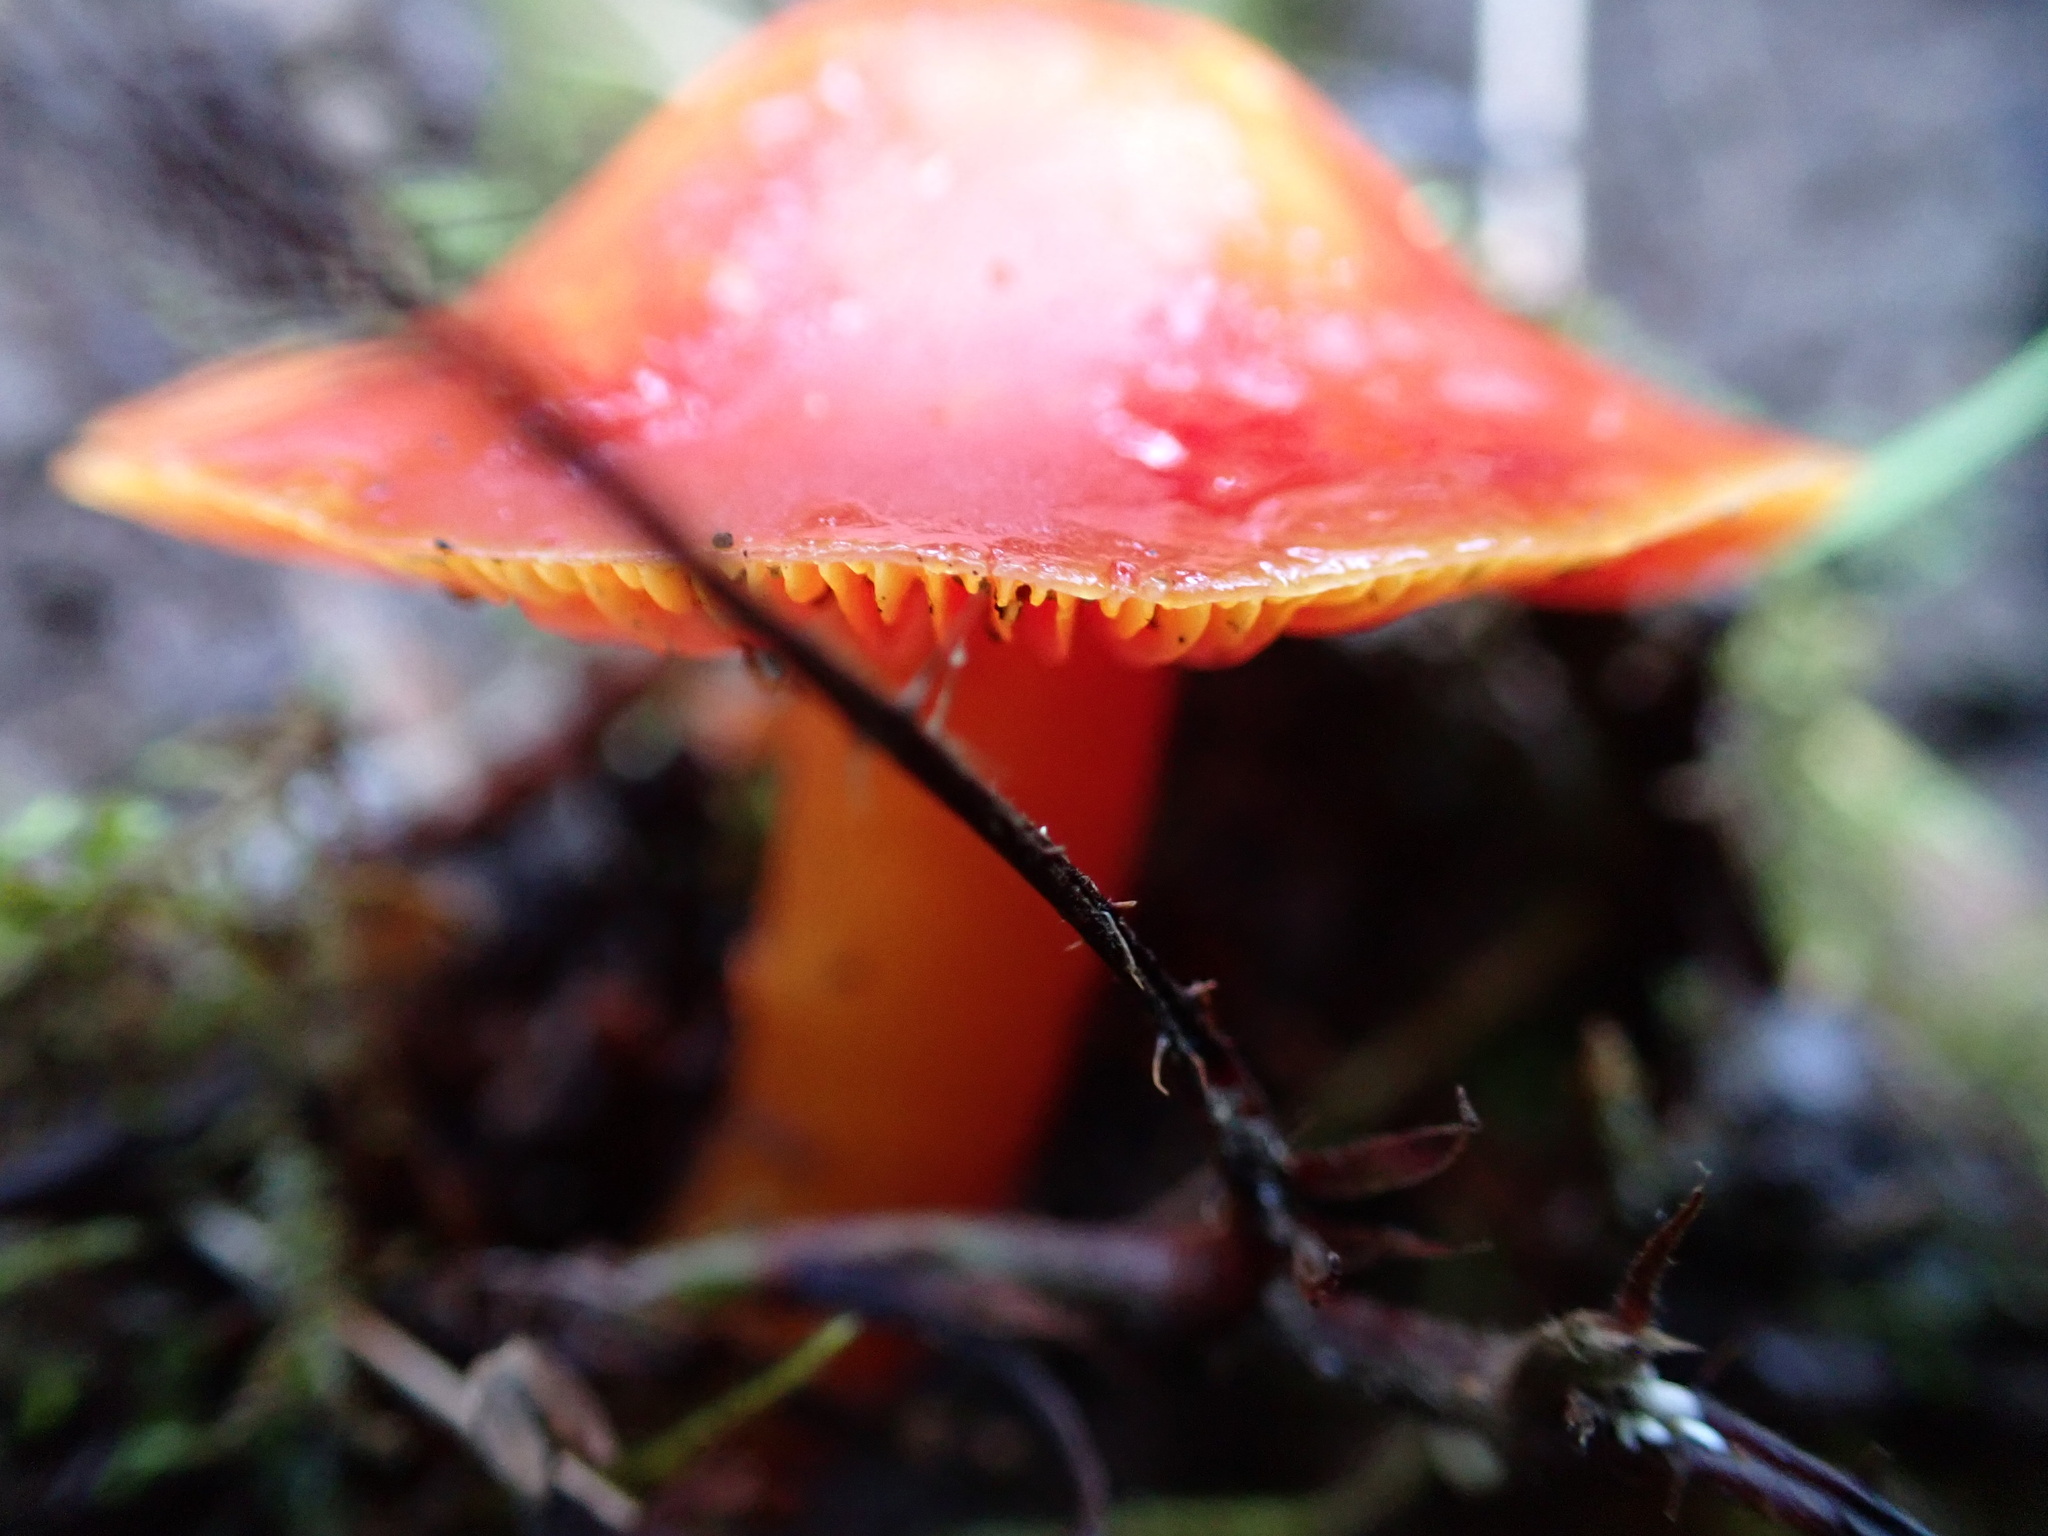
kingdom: Fungi
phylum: Basidiomycota
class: Agaricomycetes
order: Agaricales
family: Hygrophoraceae
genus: Hygrocybe
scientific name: Hygrocybe coccinea
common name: Scarlet hood
